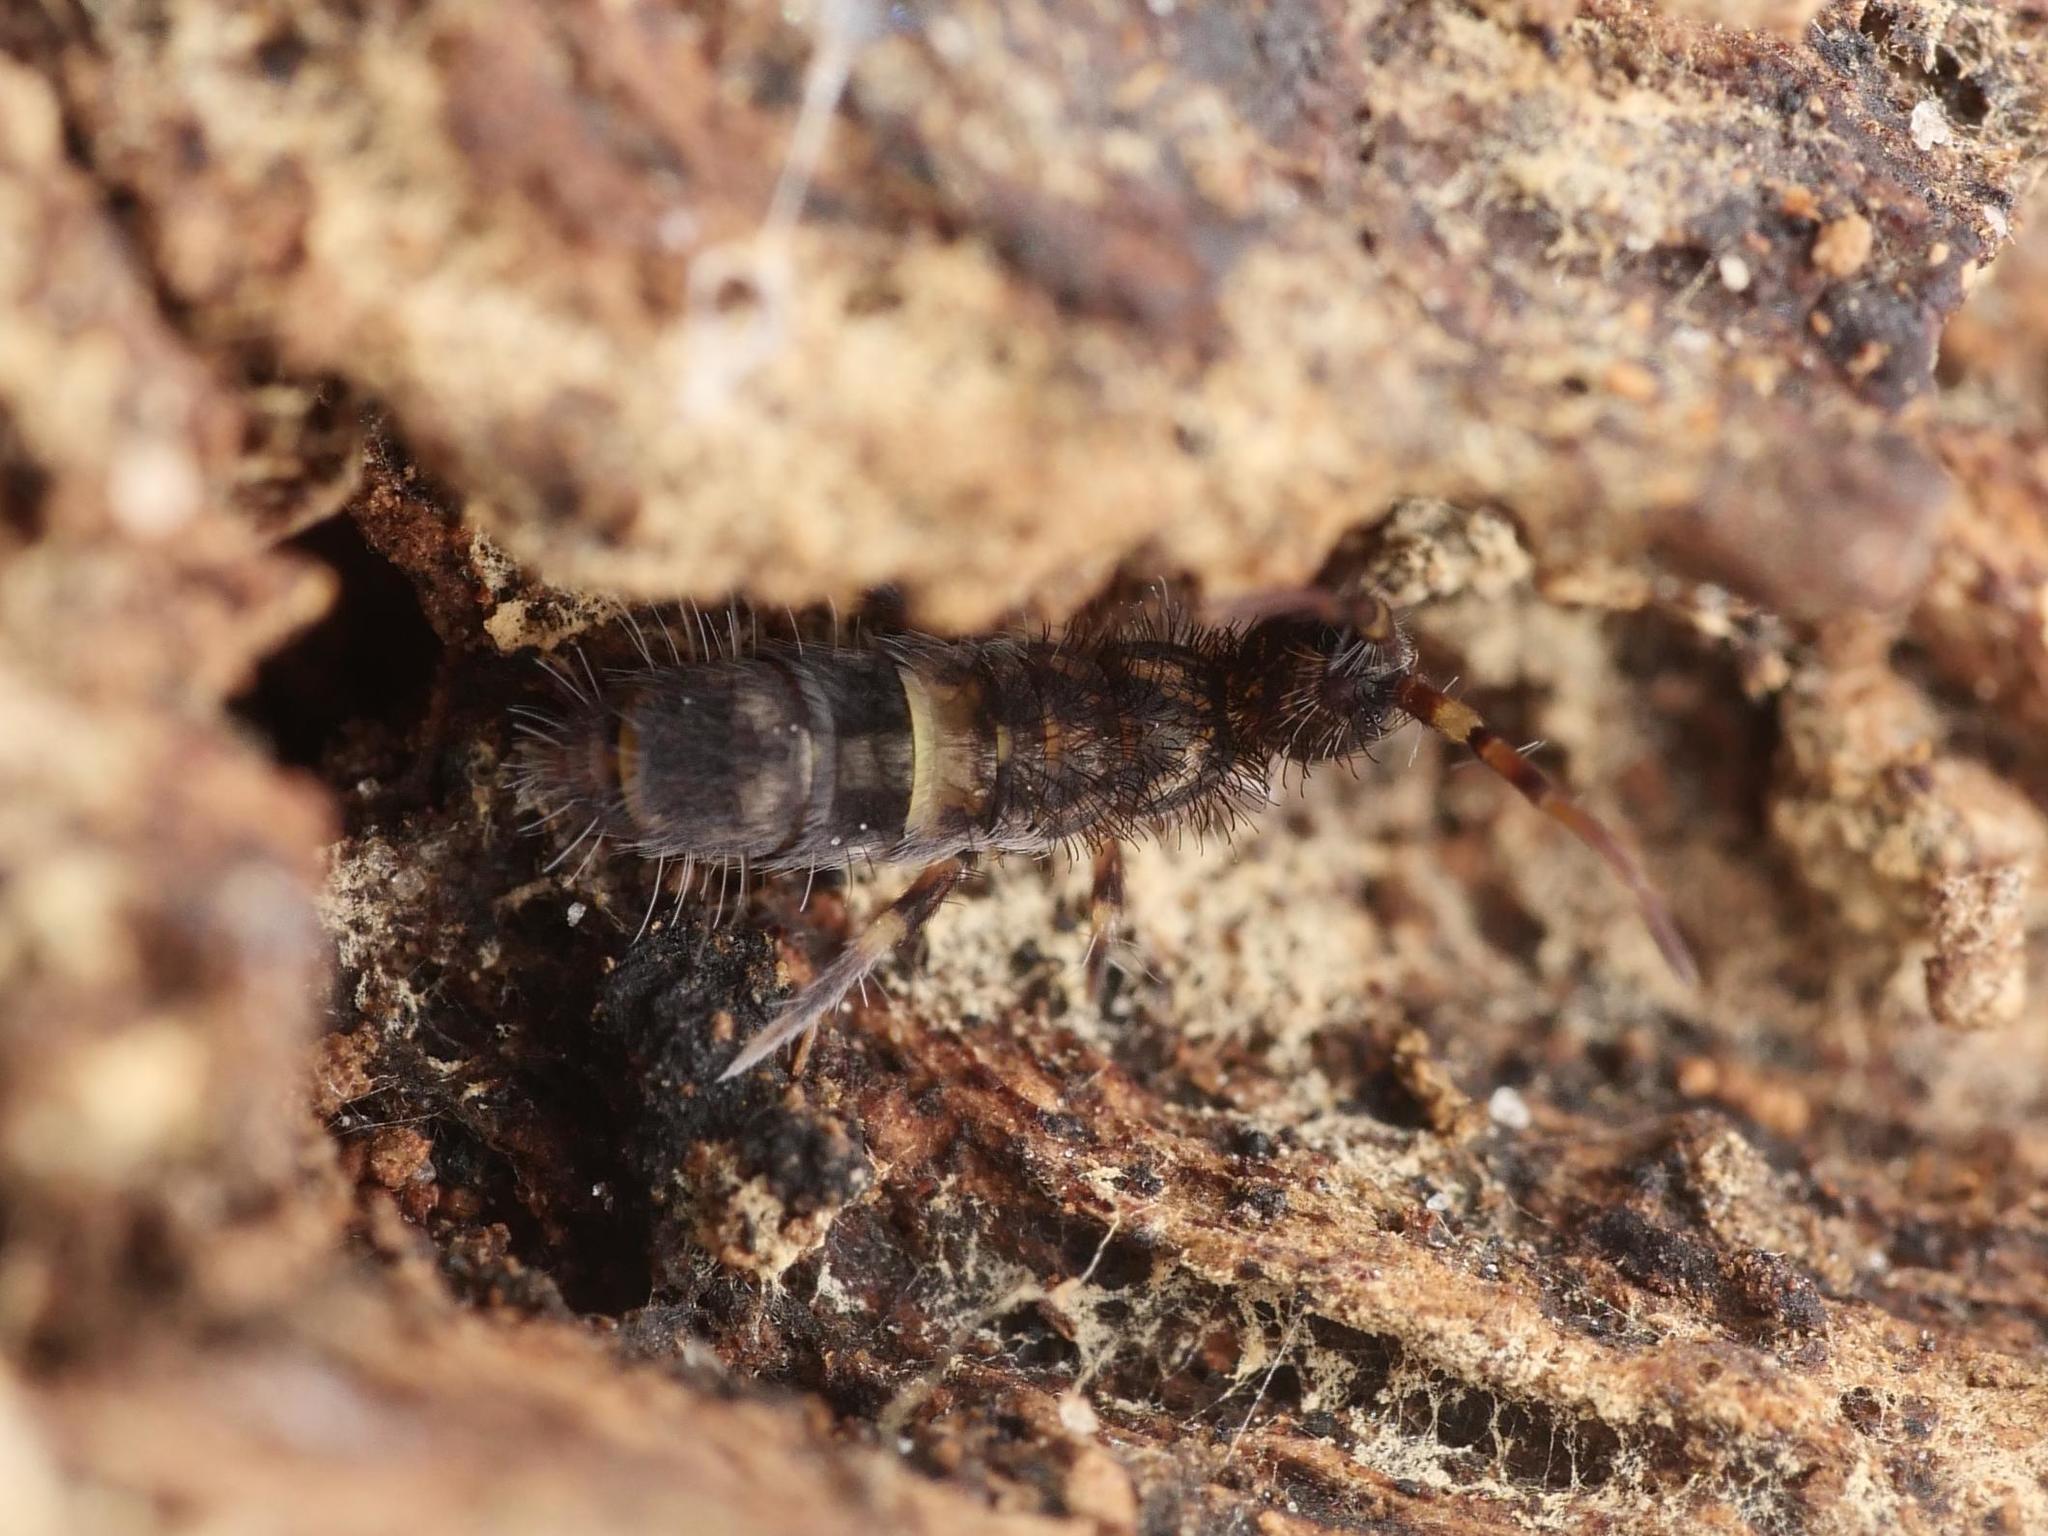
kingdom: Animalia
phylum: Arthropoda
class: Collembola
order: Entomobryomorpha
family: Orchesellidae
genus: Orchesella
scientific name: Orchesella cincta
